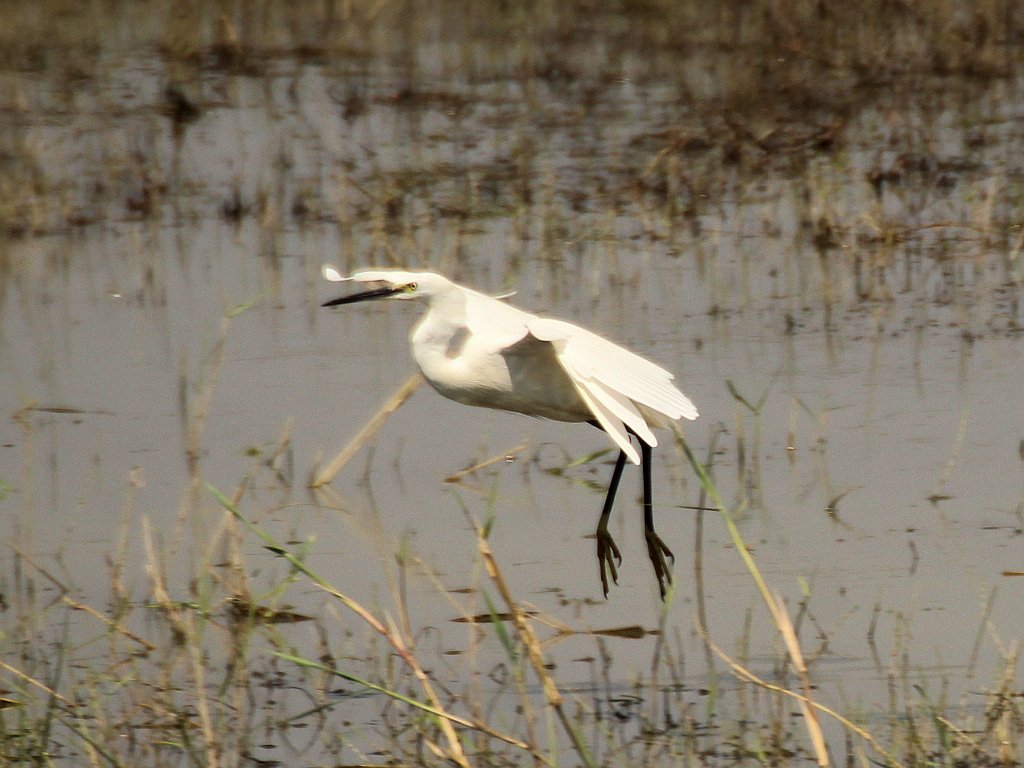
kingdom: Animalia
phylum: Chordata
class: Aves
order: Pelecaniformes
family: Ardeidae
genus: Egretta
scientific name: Egretta garzetta
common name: Little egret
